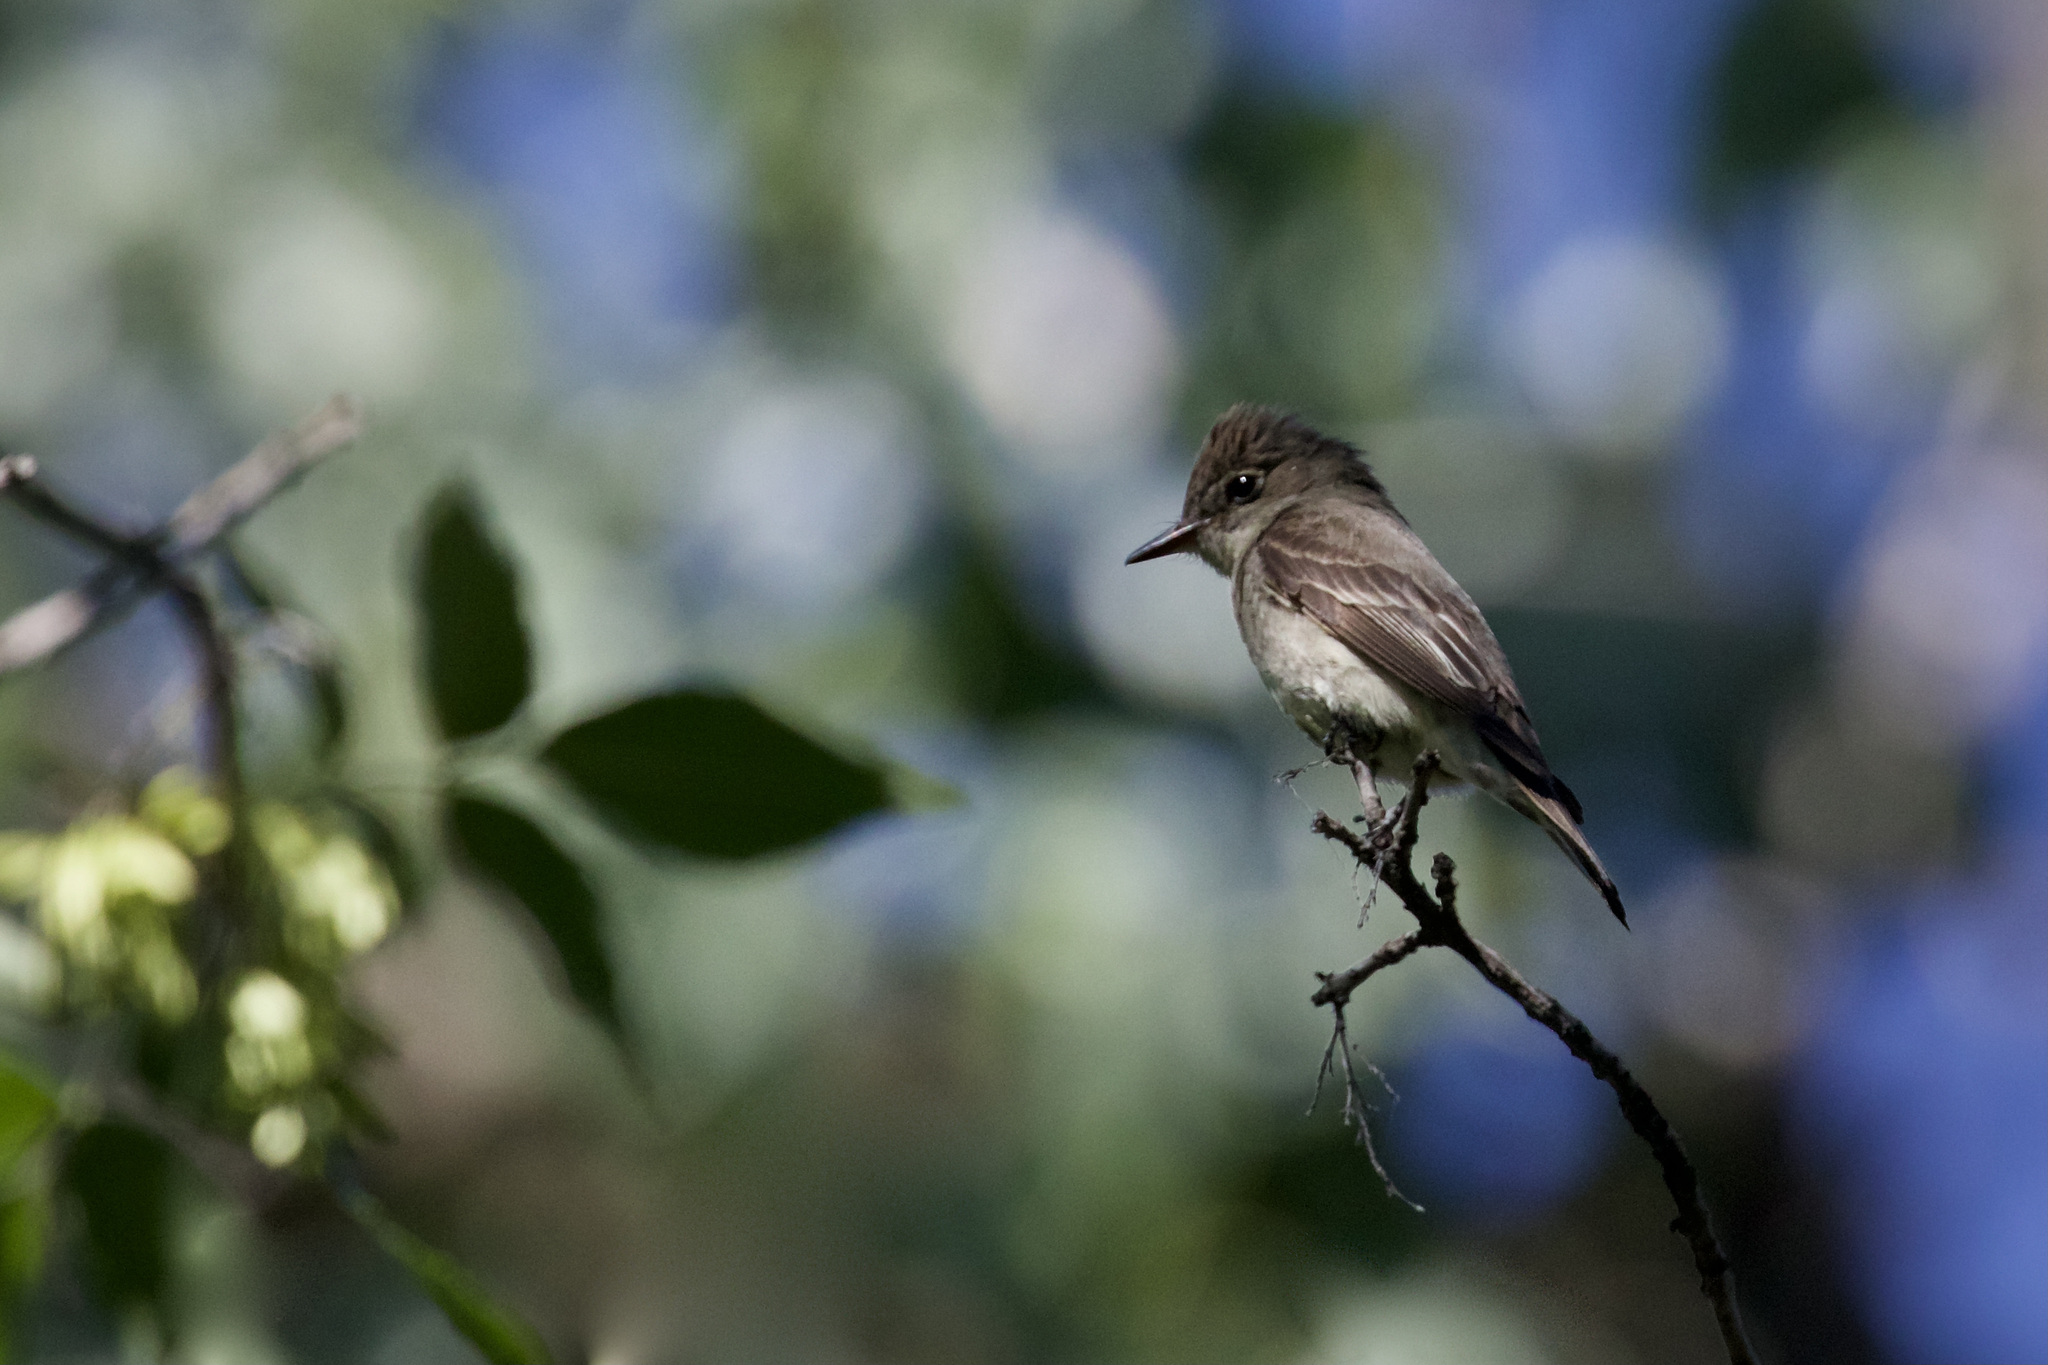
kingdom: Animalia
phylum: Chordata
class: Aves
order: Passeriformes
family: Tyrannidae
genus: Contopus
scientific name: Contopus sordidulus
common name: Western wood-pewee
